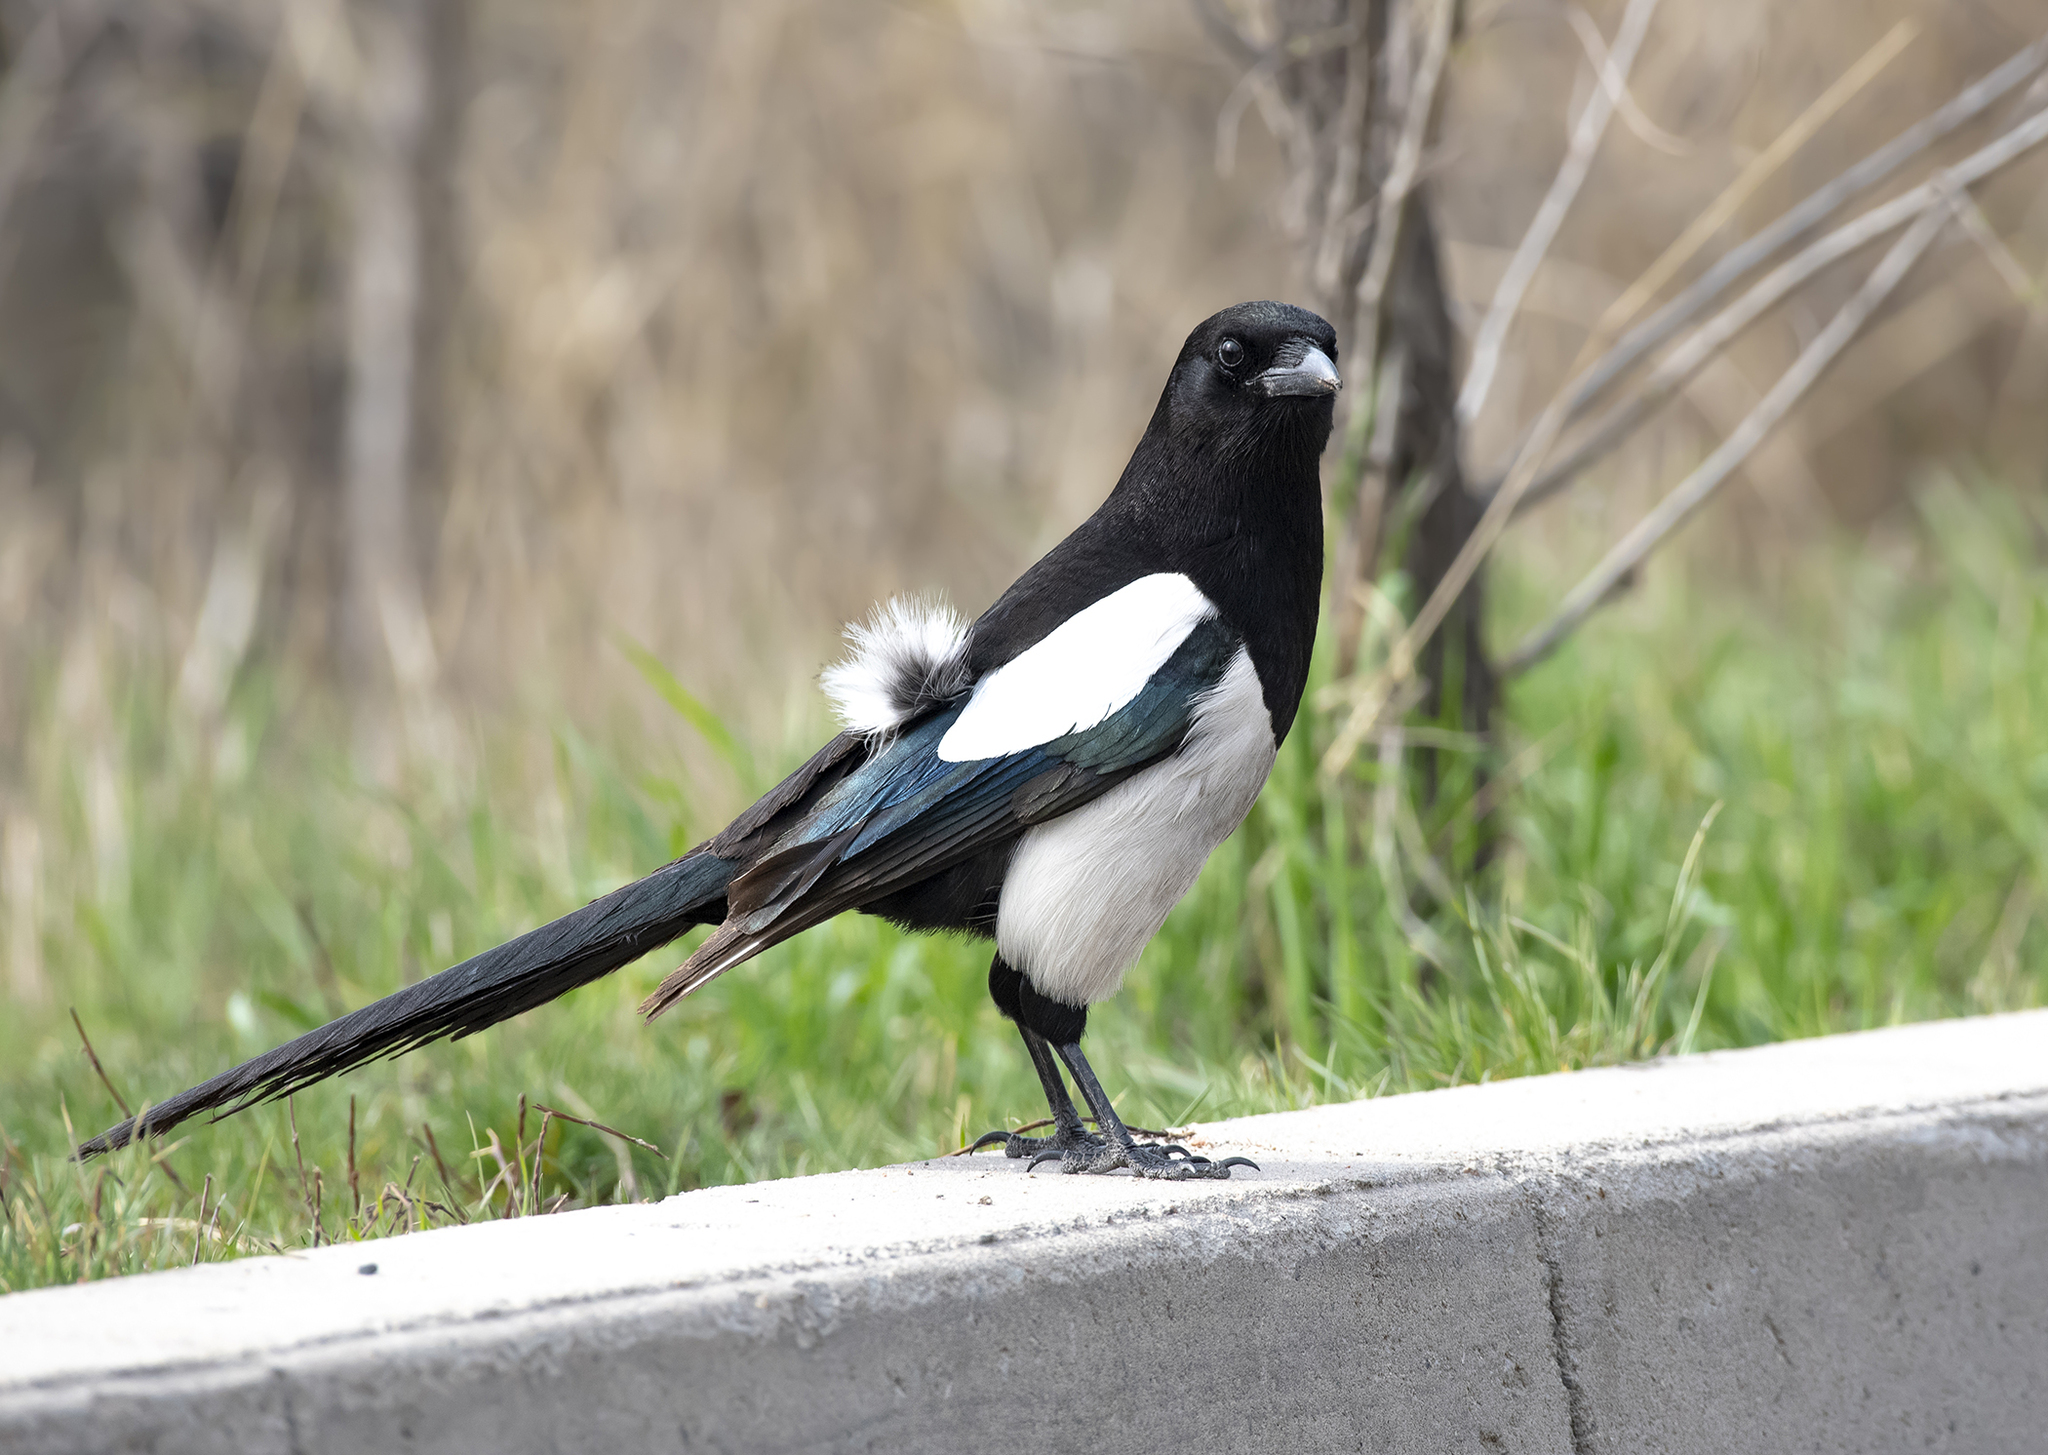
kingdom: Animalia
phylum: Chordata
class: Aves
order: Passeriformes
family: Corvidae
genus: Pica
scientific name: Pica pica
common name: Eurasian magpie
